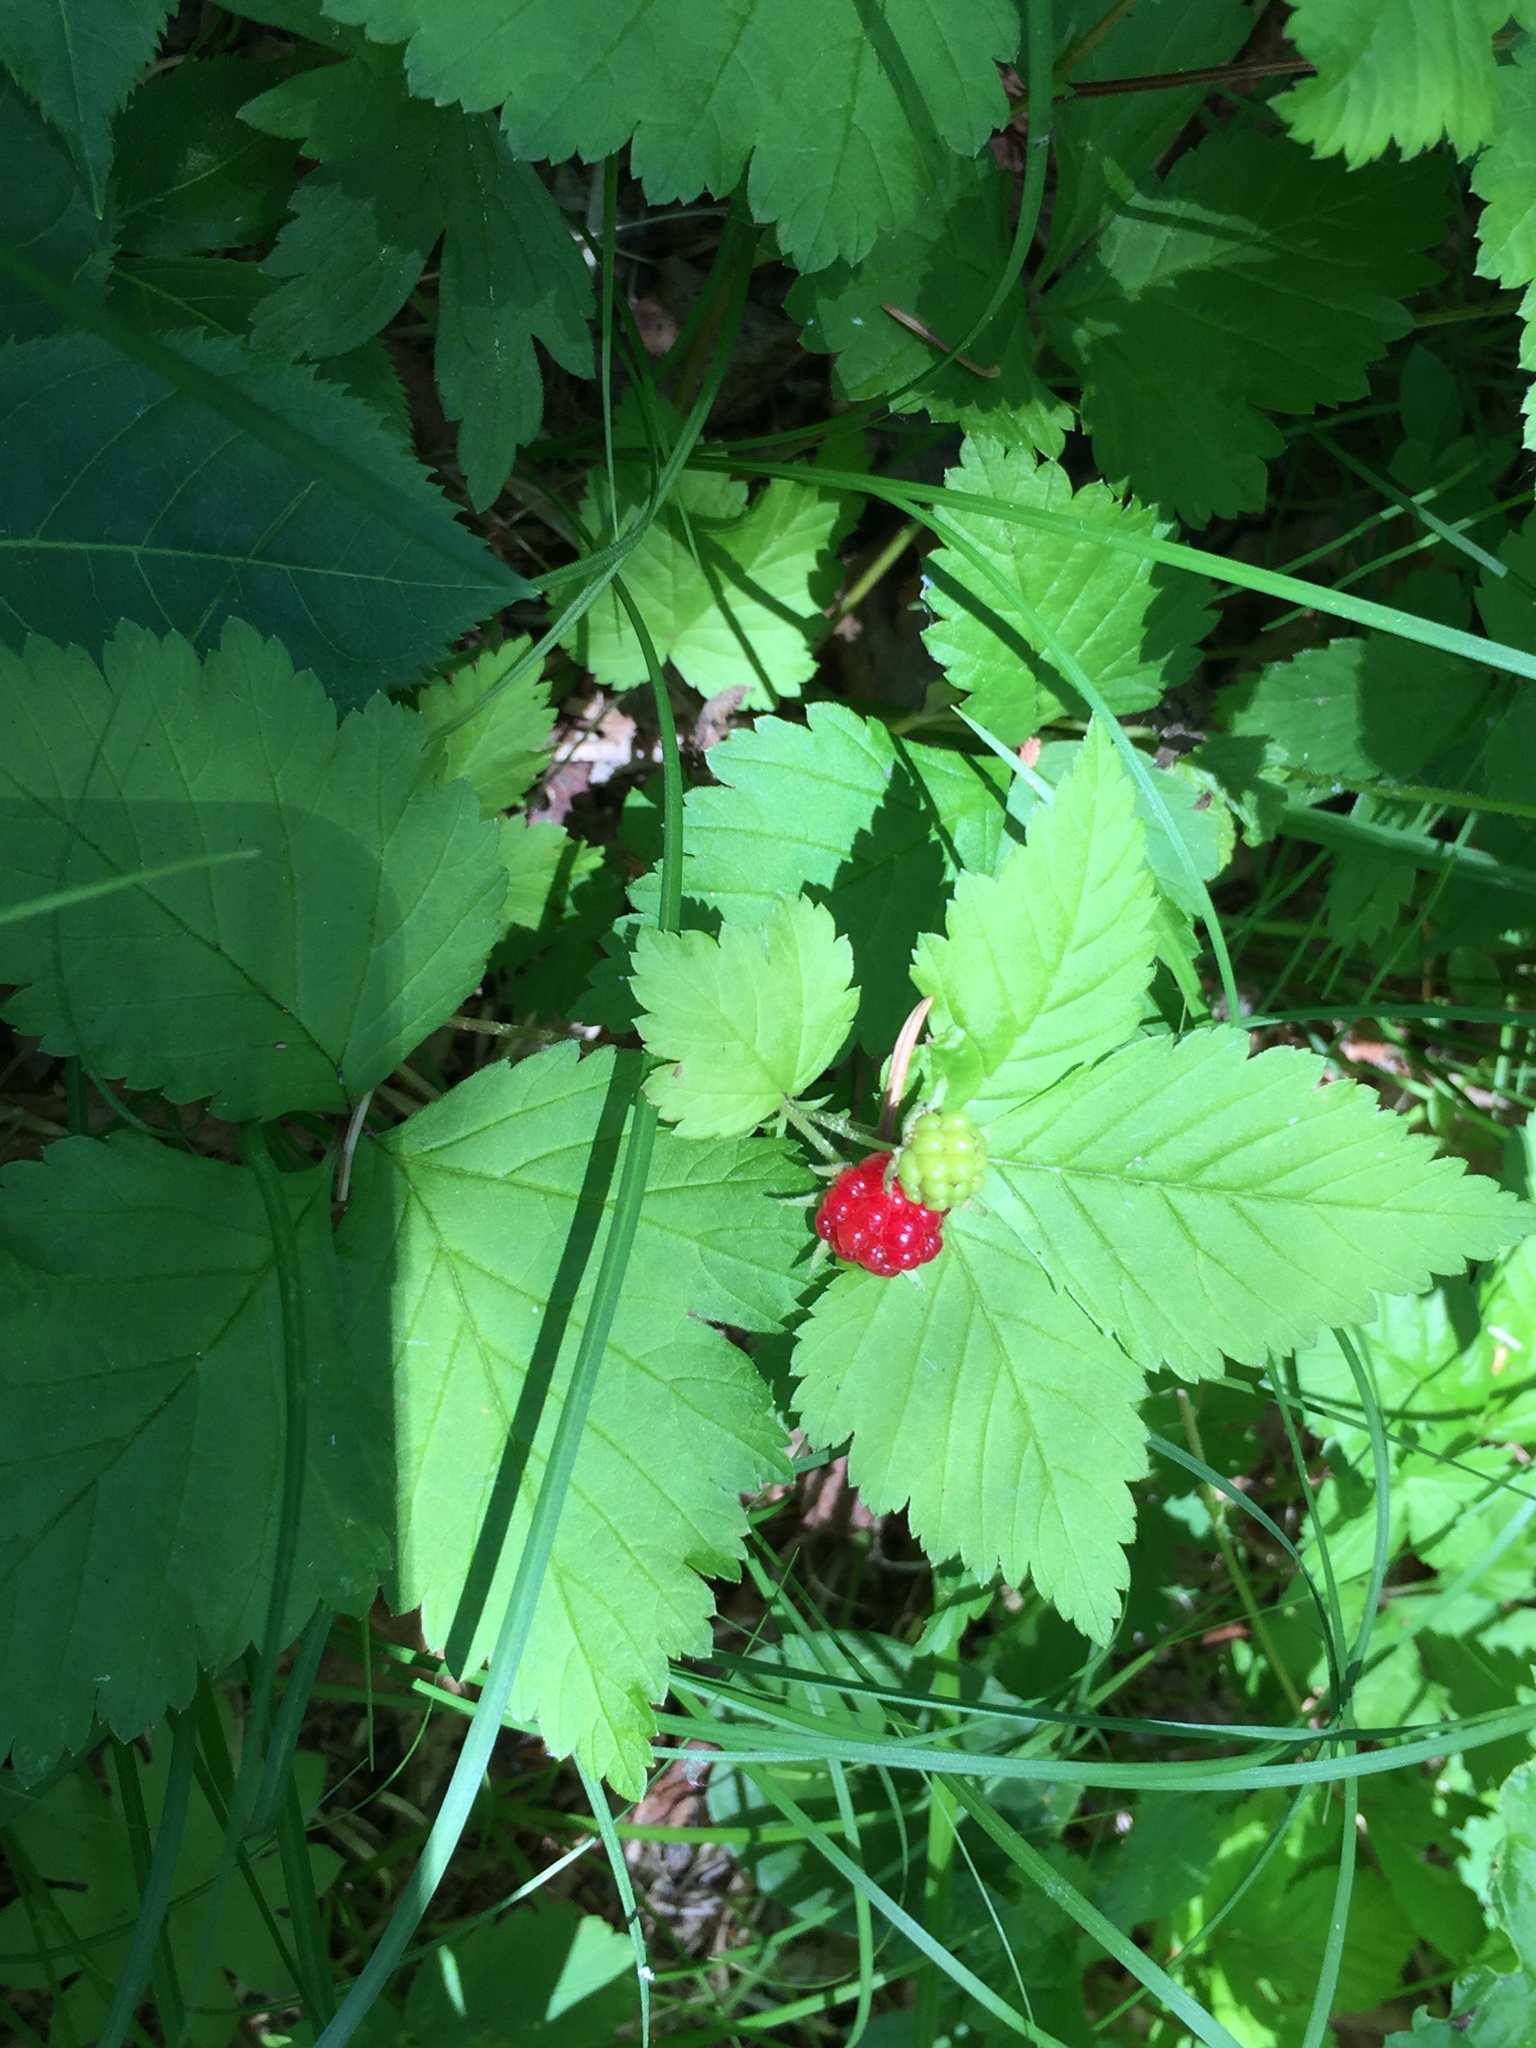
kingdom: Plantae
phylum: Tracheophyta
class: Magnoliopsida
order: Rosales
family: Rosaceae
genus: Rubus
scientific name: Rubus pubescens
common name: Dwarf raspberry
